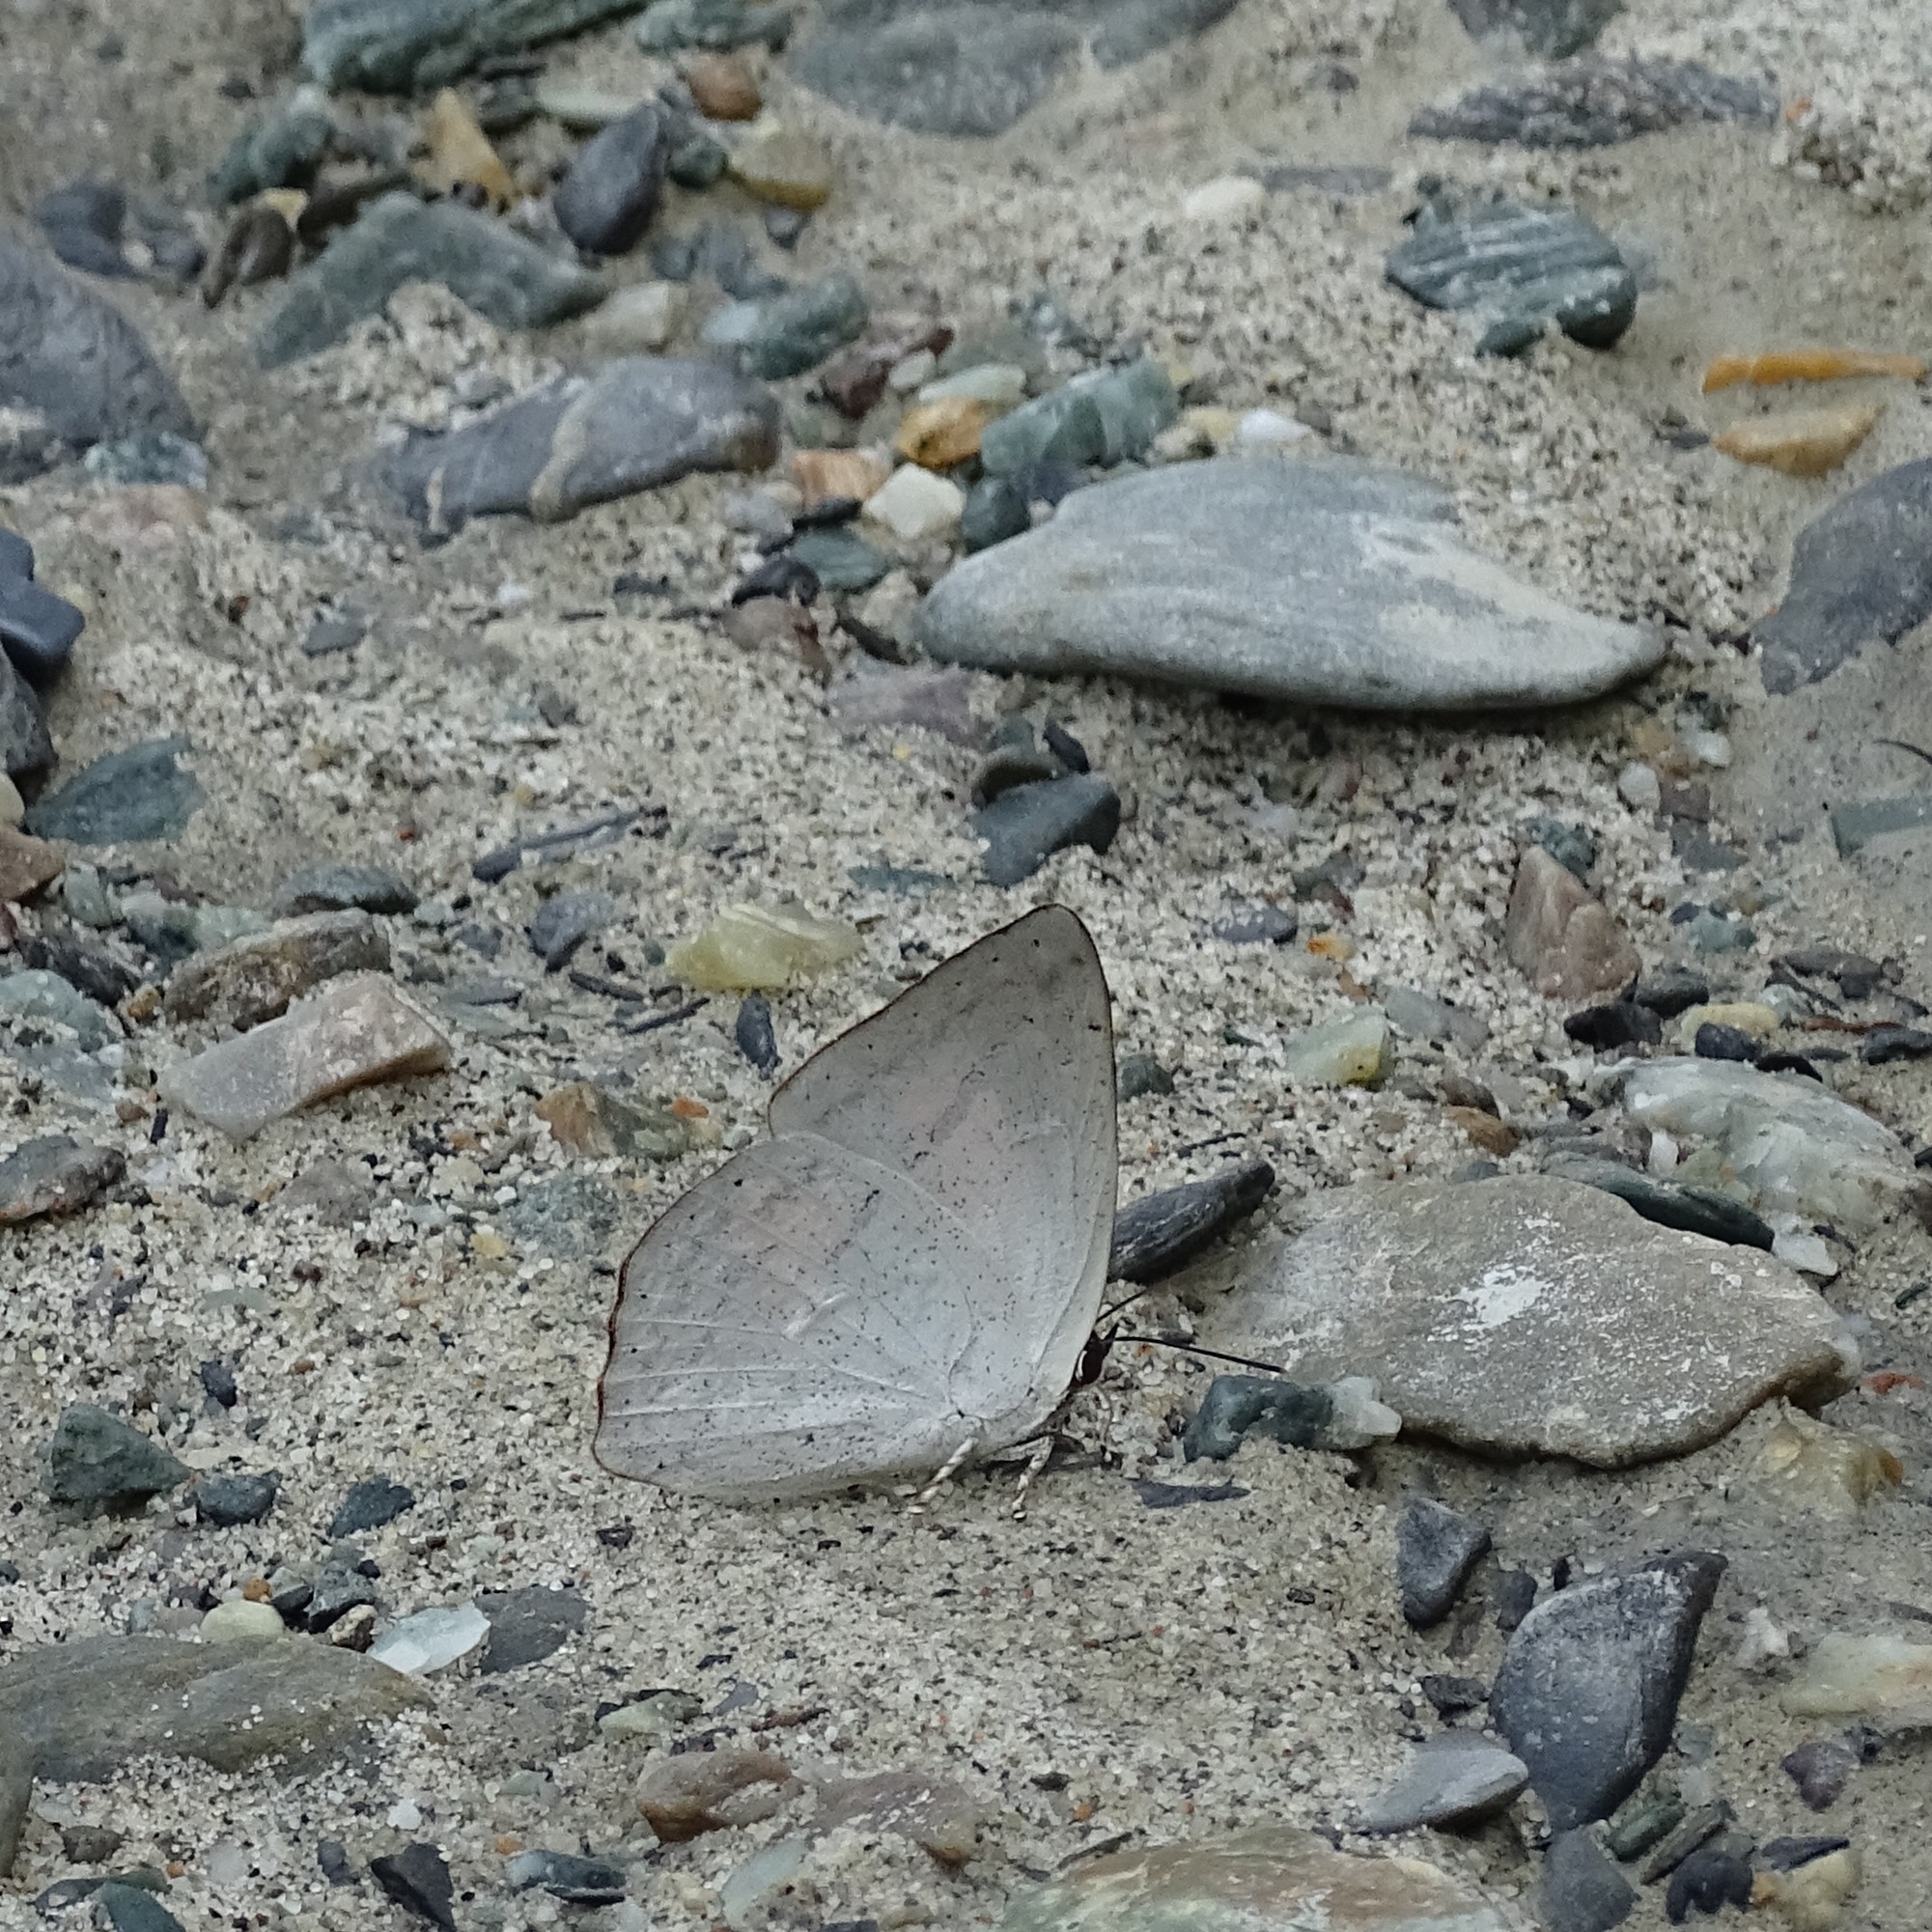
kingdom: Animalia
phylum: Arthropoda
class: Insecta
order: Lepidoptera
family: Lycaenidae
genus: Curetis
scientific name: Curetis bulis
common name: Bright sunbeam
